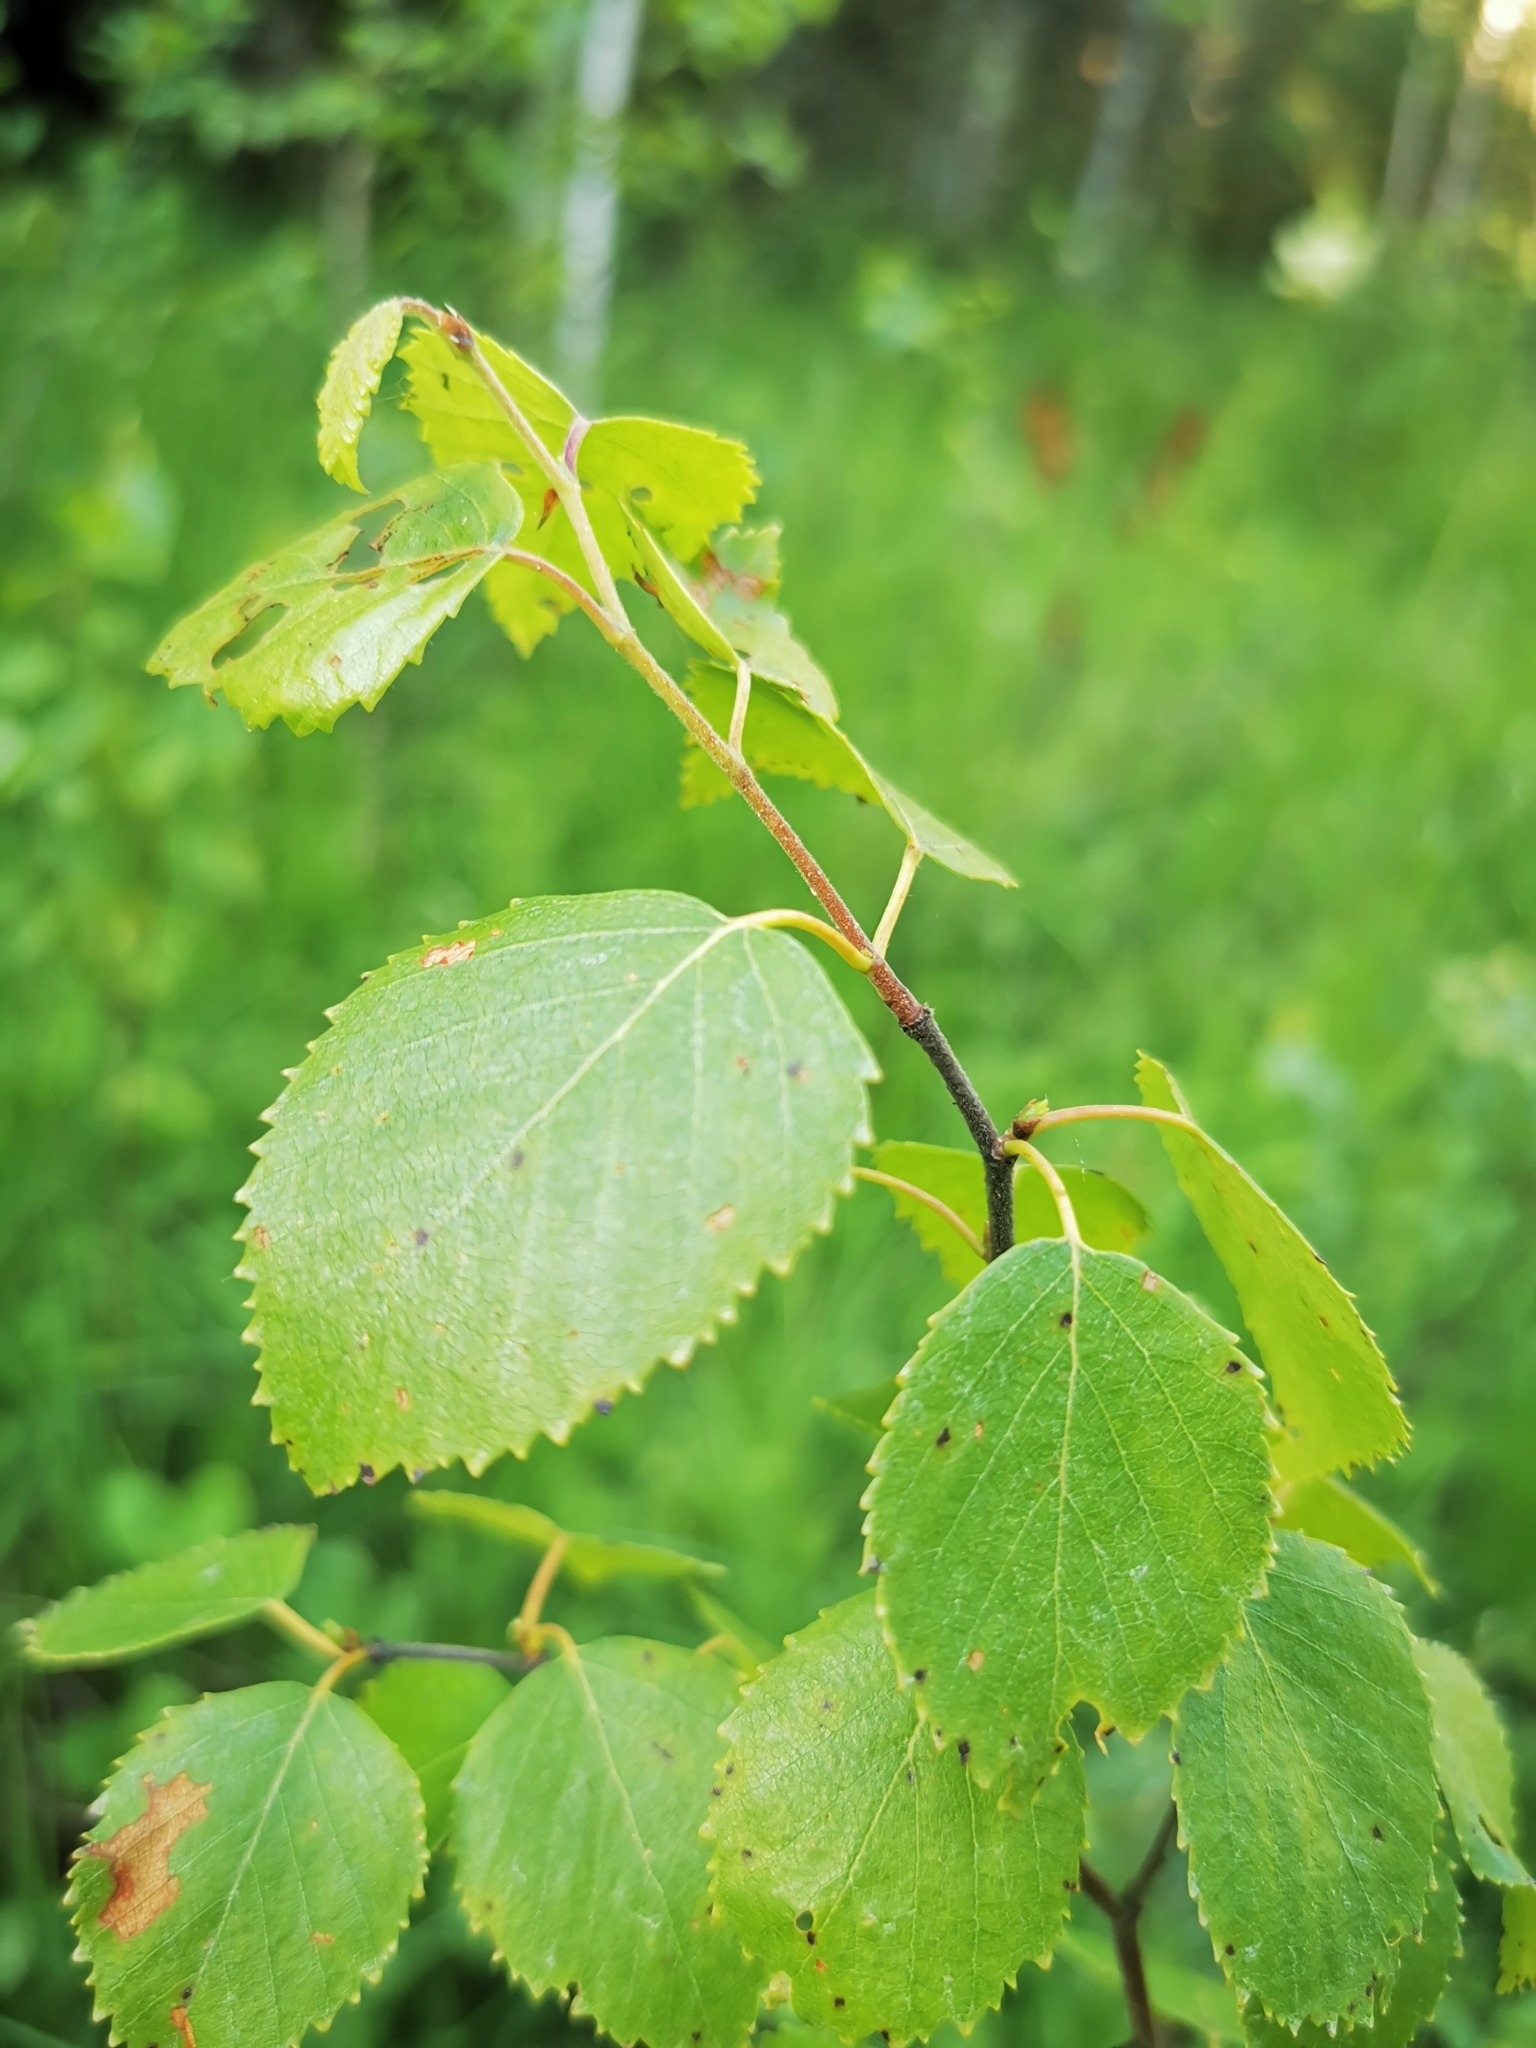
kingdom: Plantae
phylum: Tracheophyta
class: Magnoliopsida
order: Fagales
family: Betulaceae
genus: Betula
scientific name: Betula pubescens
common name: Downy birch
